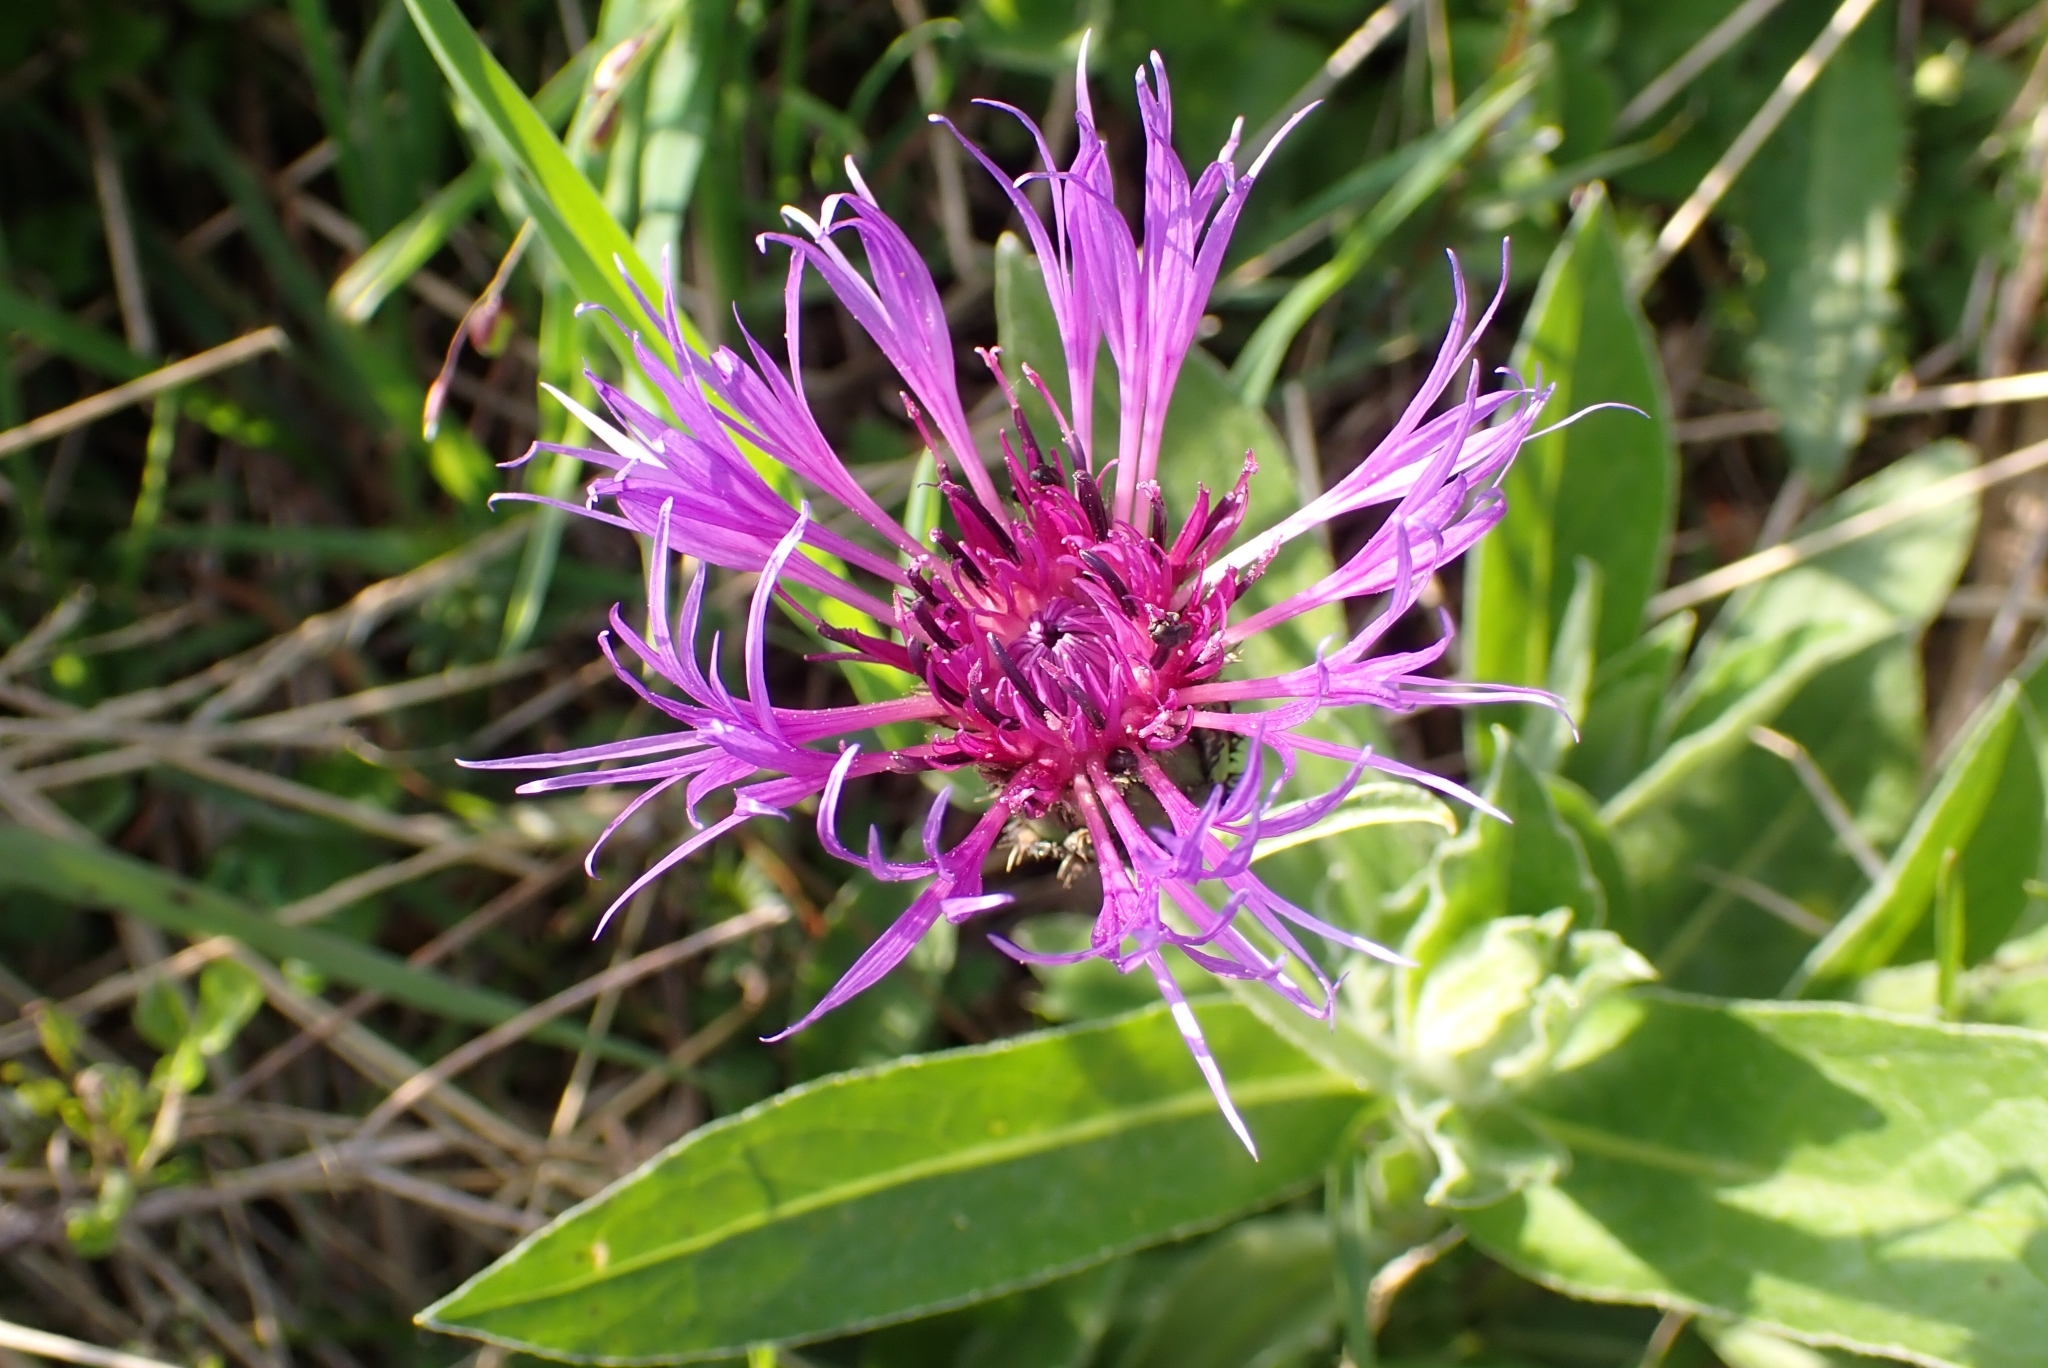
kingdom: Plantae
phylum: Tracheophyta
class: Magnoliopsida
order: Asterales
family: Asteraceae
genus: Centaurea
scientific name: Centaurea montana
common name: Perennial cornflower
